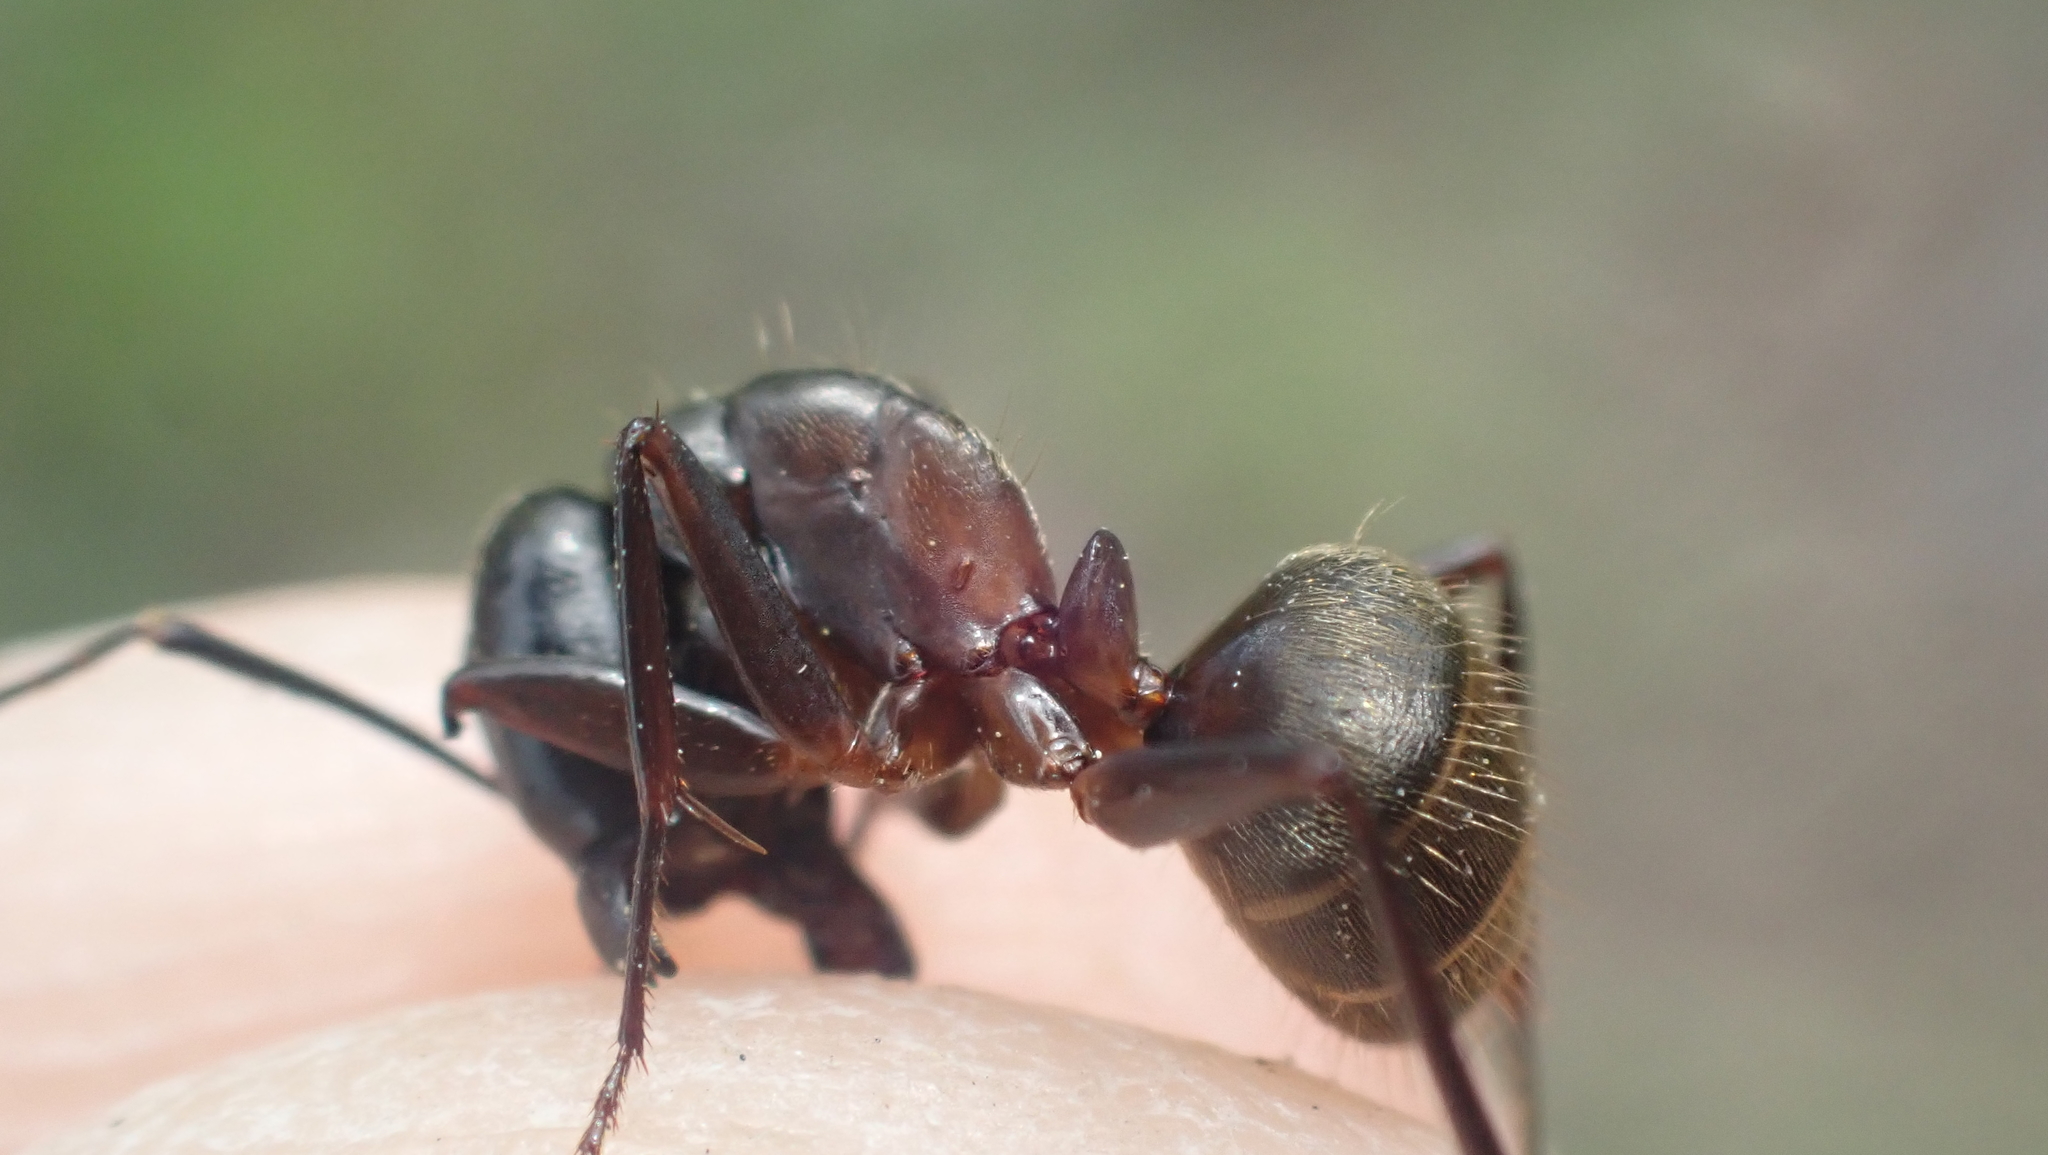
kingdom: Animalia
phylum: Arthropoda
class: Insecta
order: Hymenoptera
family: Formicidae
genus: Camponotus
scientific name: Camponotus chromaiodes
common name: Red carpenter ant
